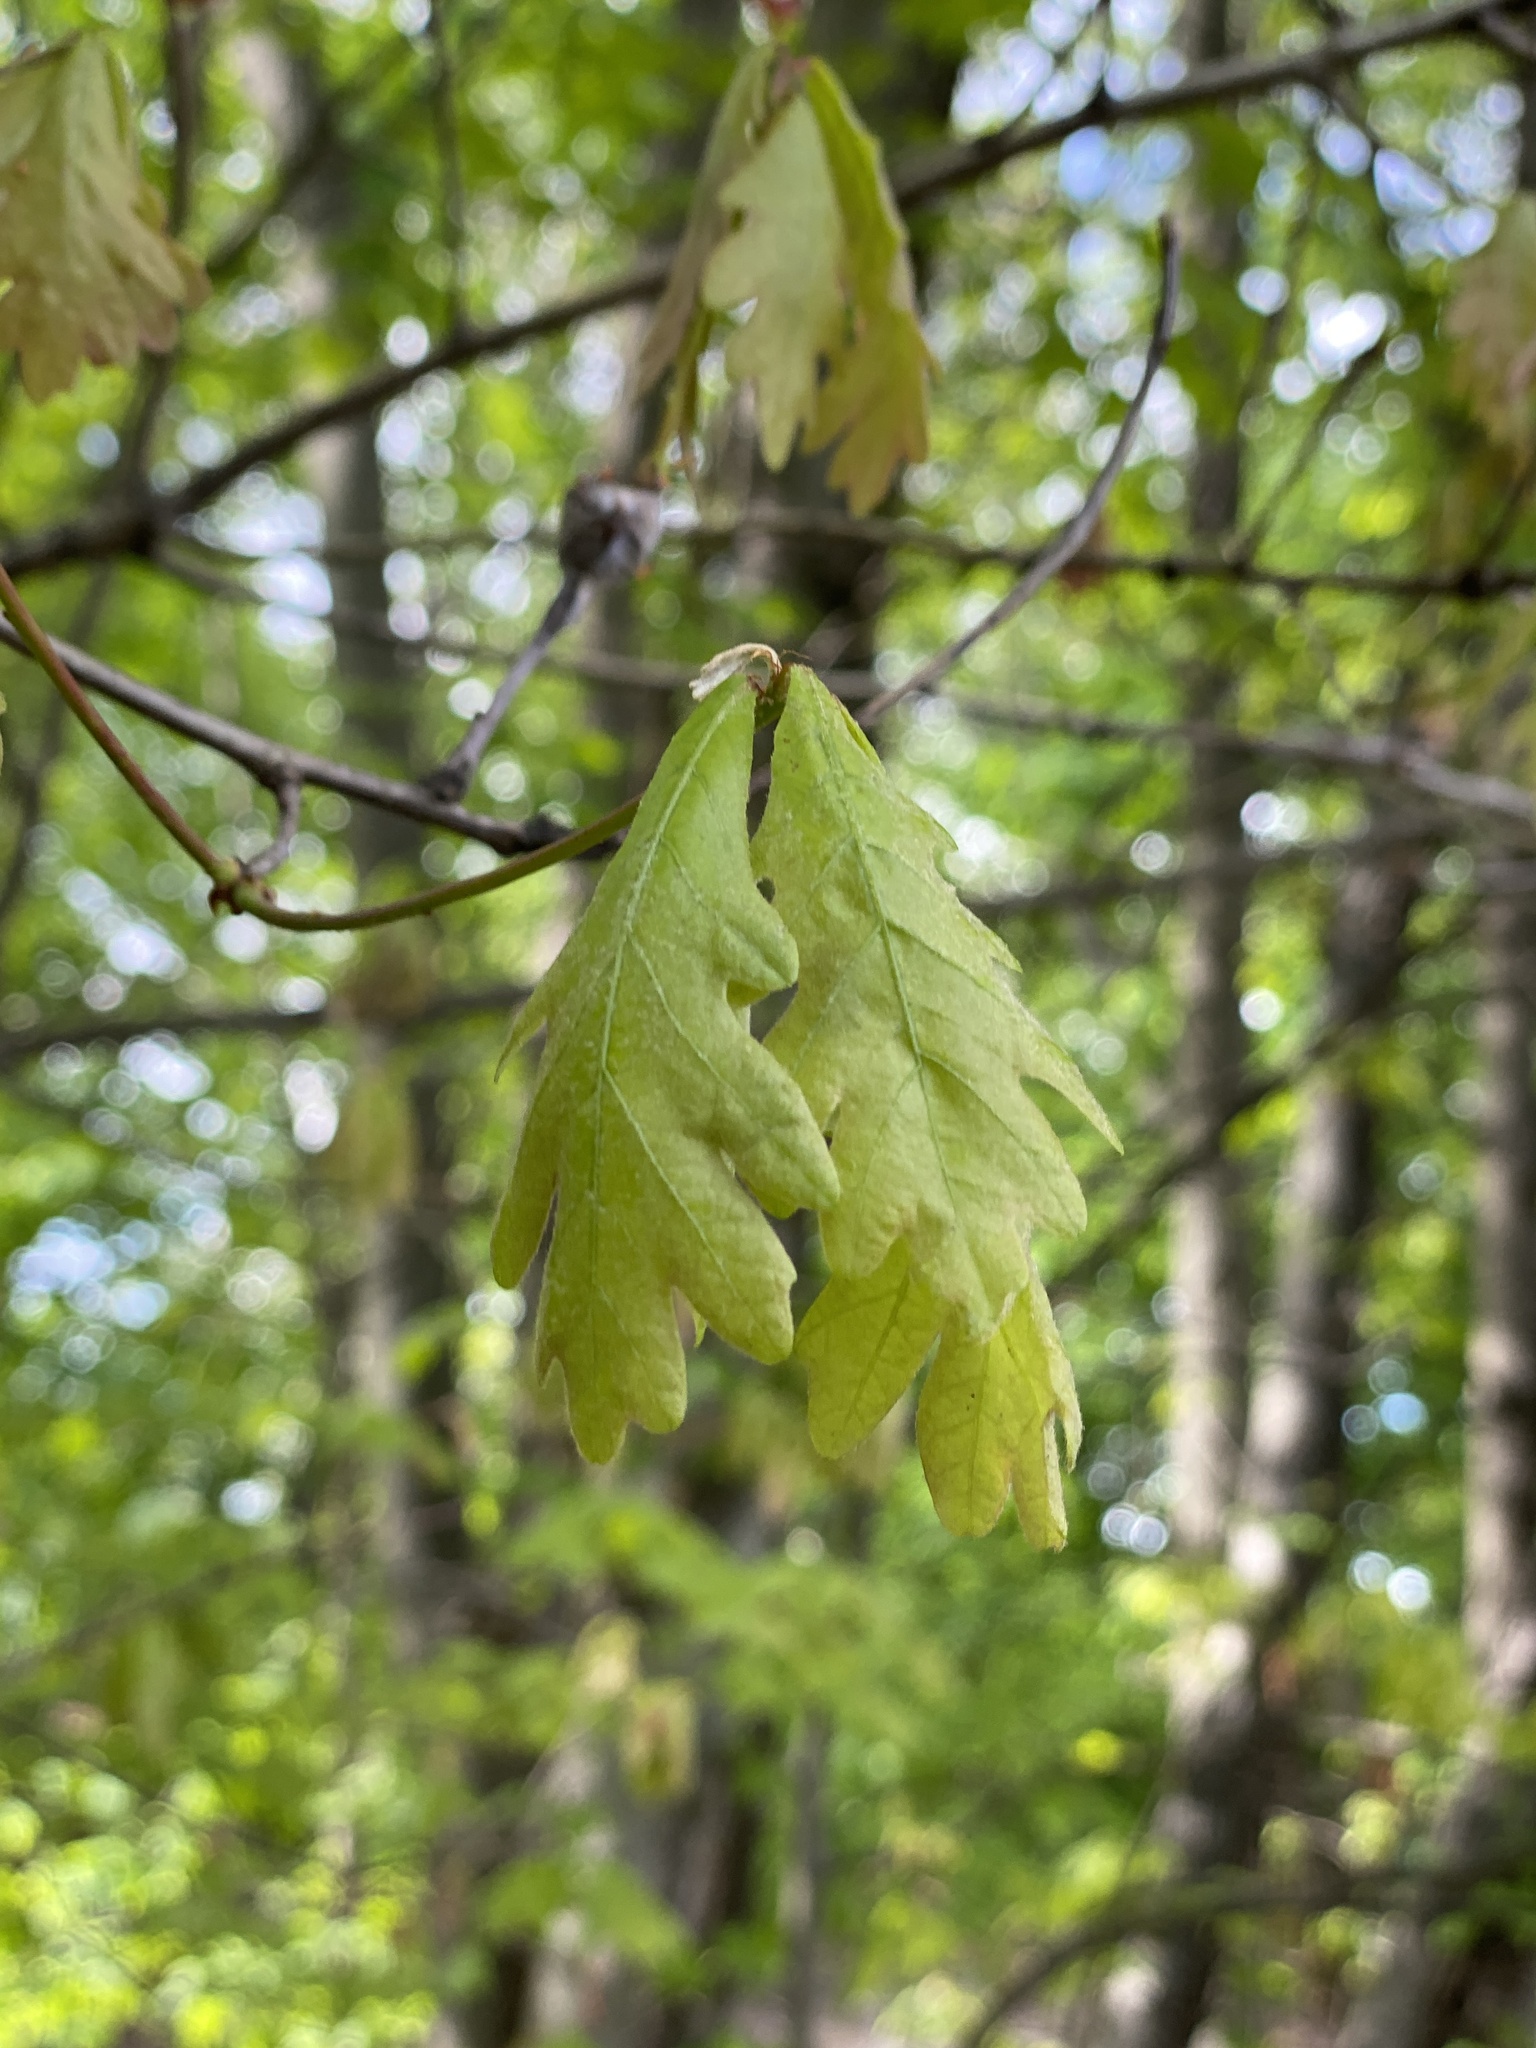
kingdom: Plantae
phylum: Tracheophyta
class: Magnoliopsida
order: Fagales
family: Fagaceae
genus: Quercus
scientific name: Quercus alba
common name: White oak
